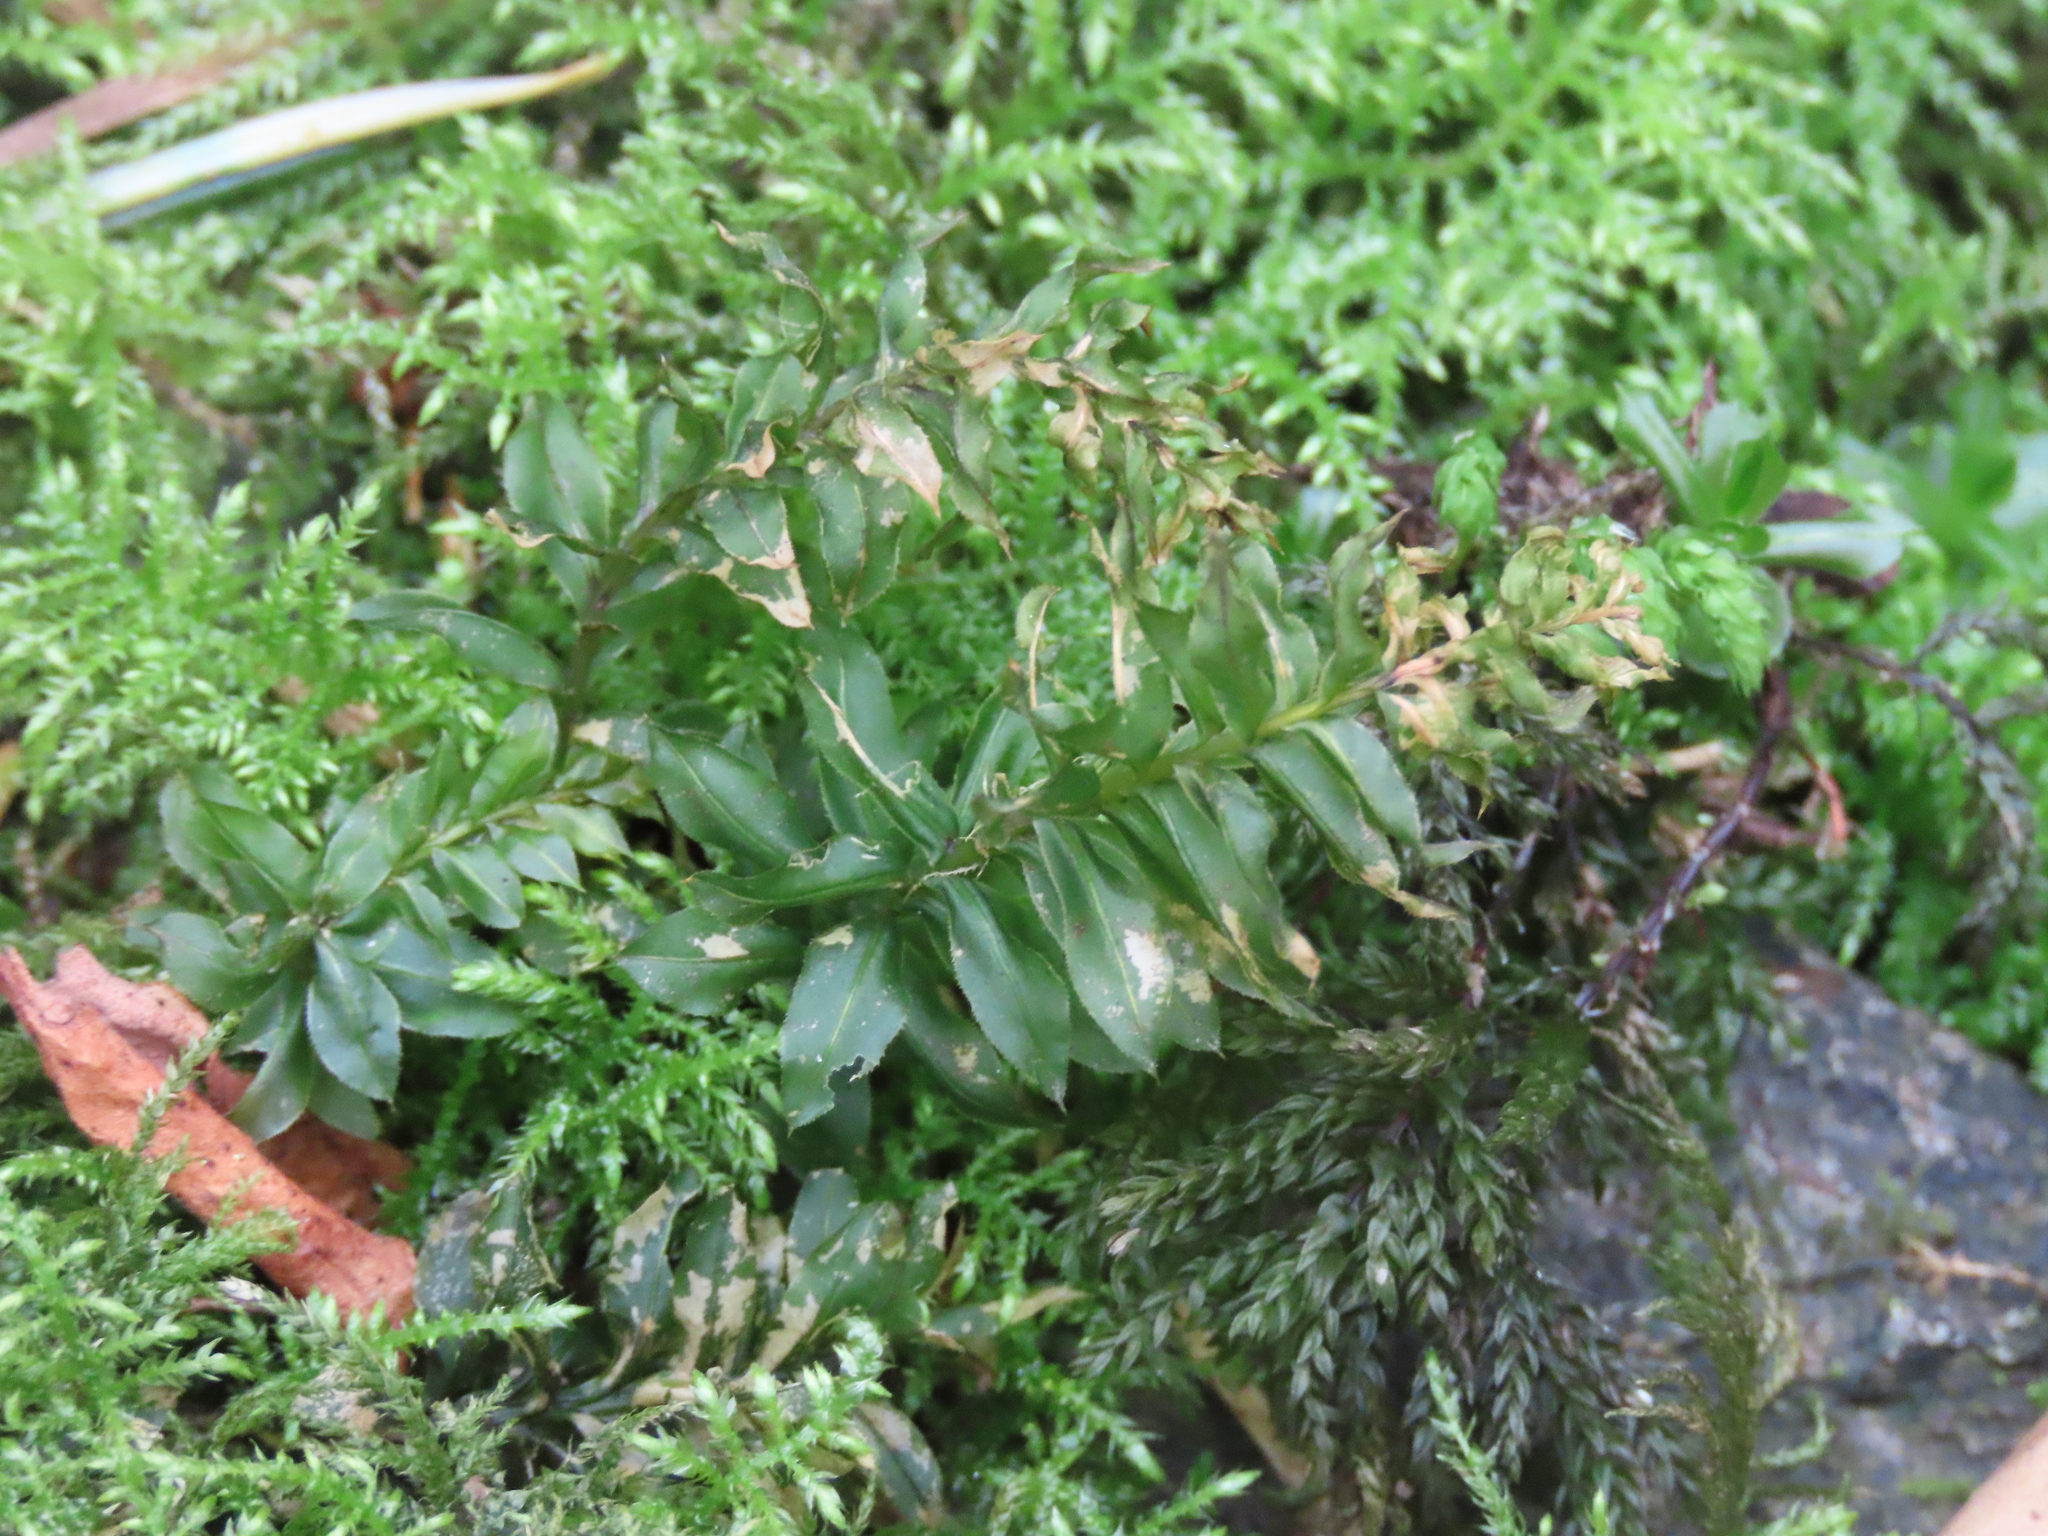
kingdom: Plantae
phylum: Bryophyta
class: Bryopsida
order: Bryales
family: Mniaceae
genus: Plagiomnium
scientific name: Plagiomnium insigne
